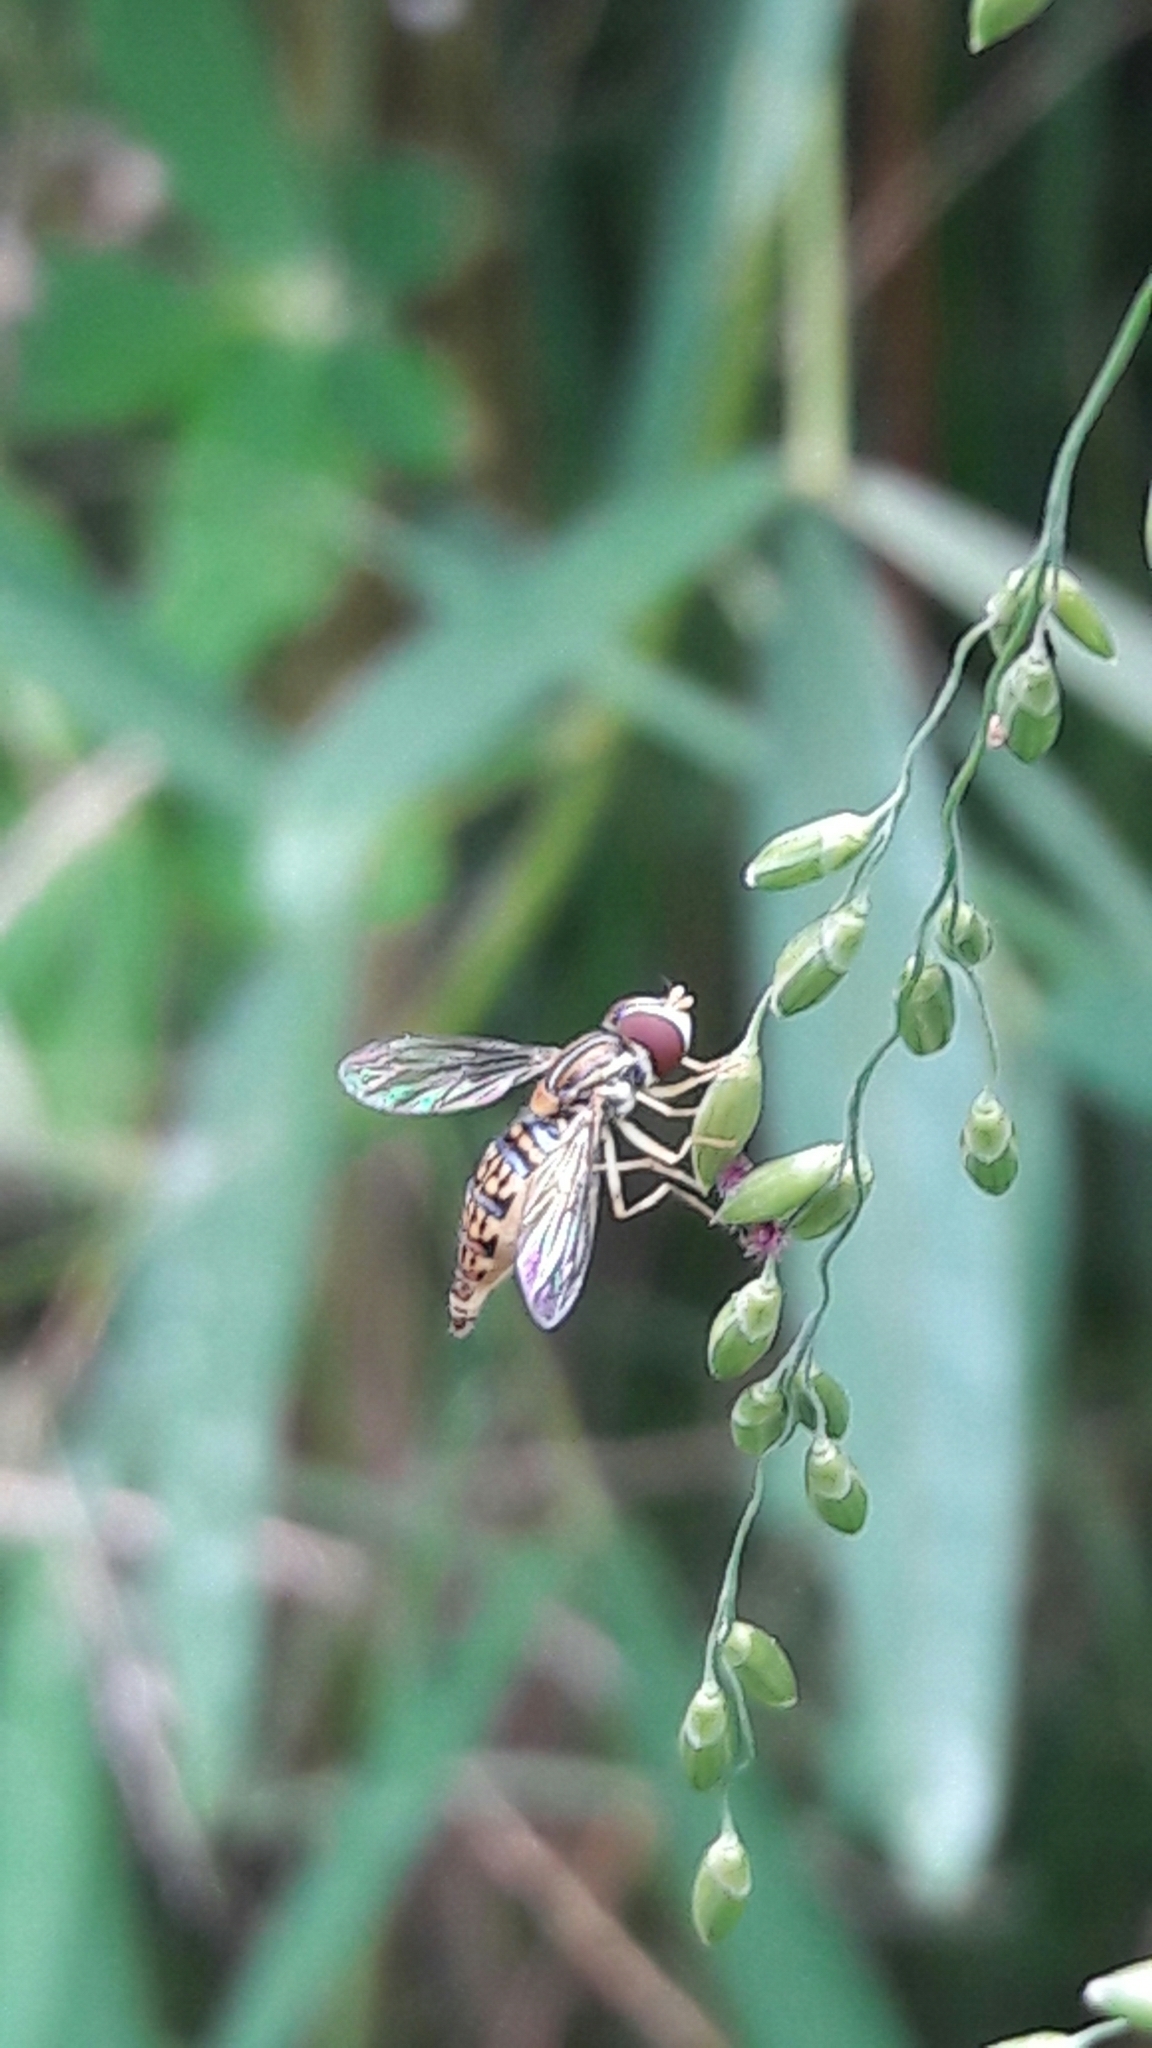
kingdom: Animalia
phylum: Arthropoda
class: Insecta
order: Diptera
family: Syrphidae
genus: Toxomerus
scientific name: Toxomerus
